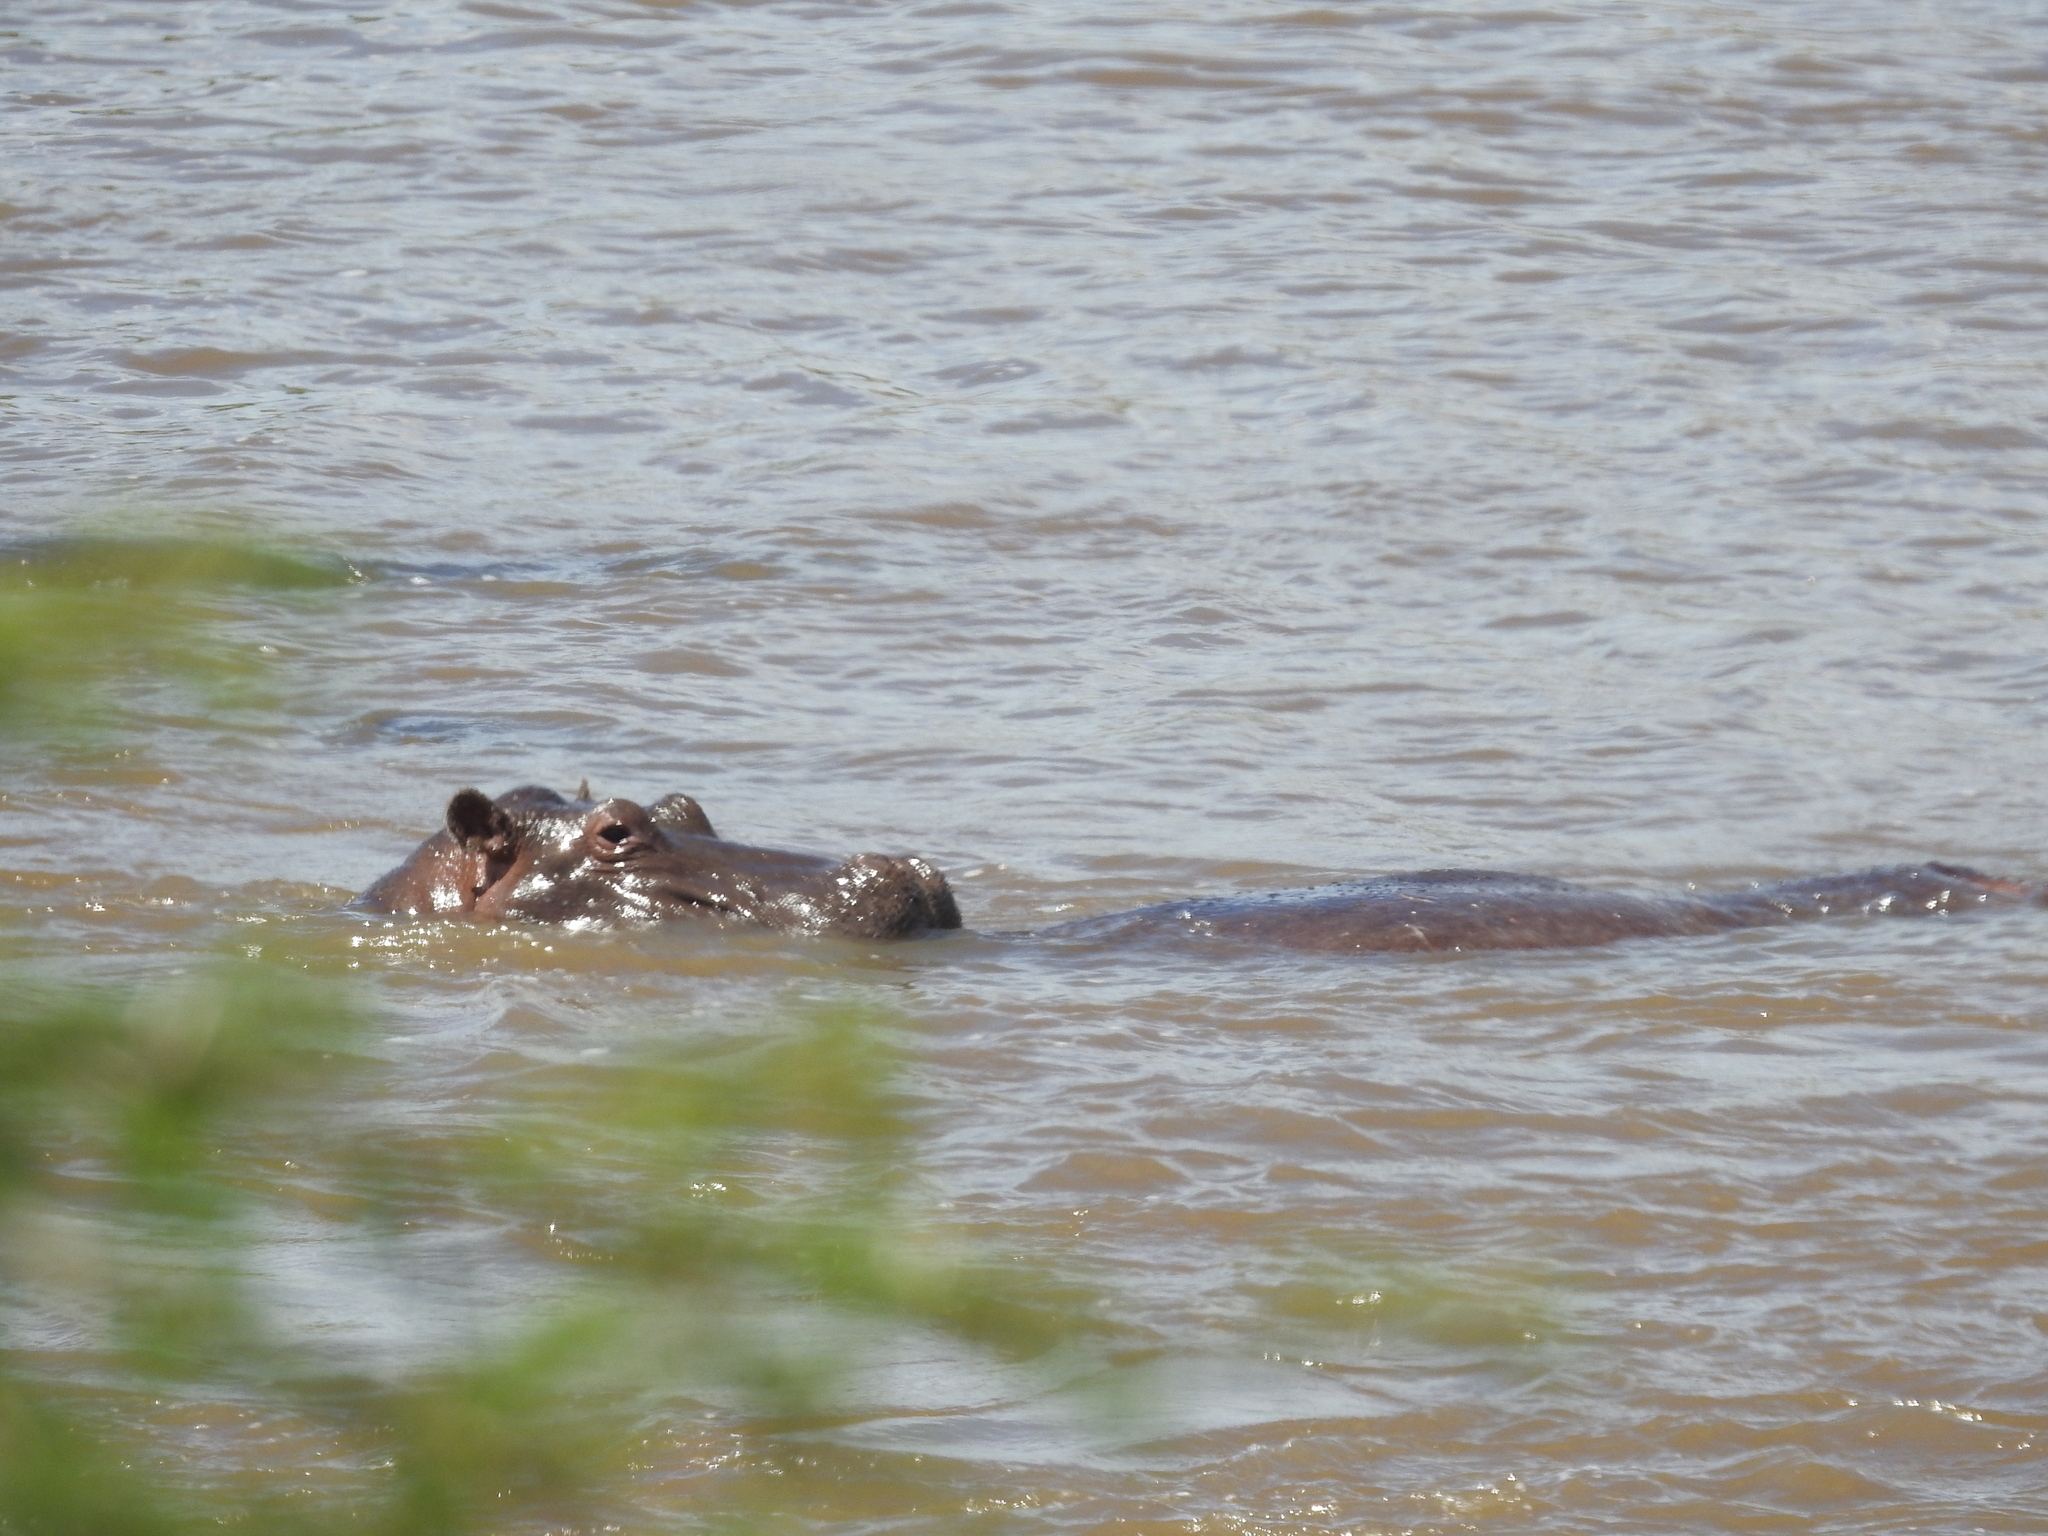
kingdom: Animalia
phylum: Chordata
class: Mammalia
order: Artiodactyla
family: Hippopotamidae
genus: Hippopotamus
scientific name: Hippopotamus amphibius
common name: Common hippopotamus
